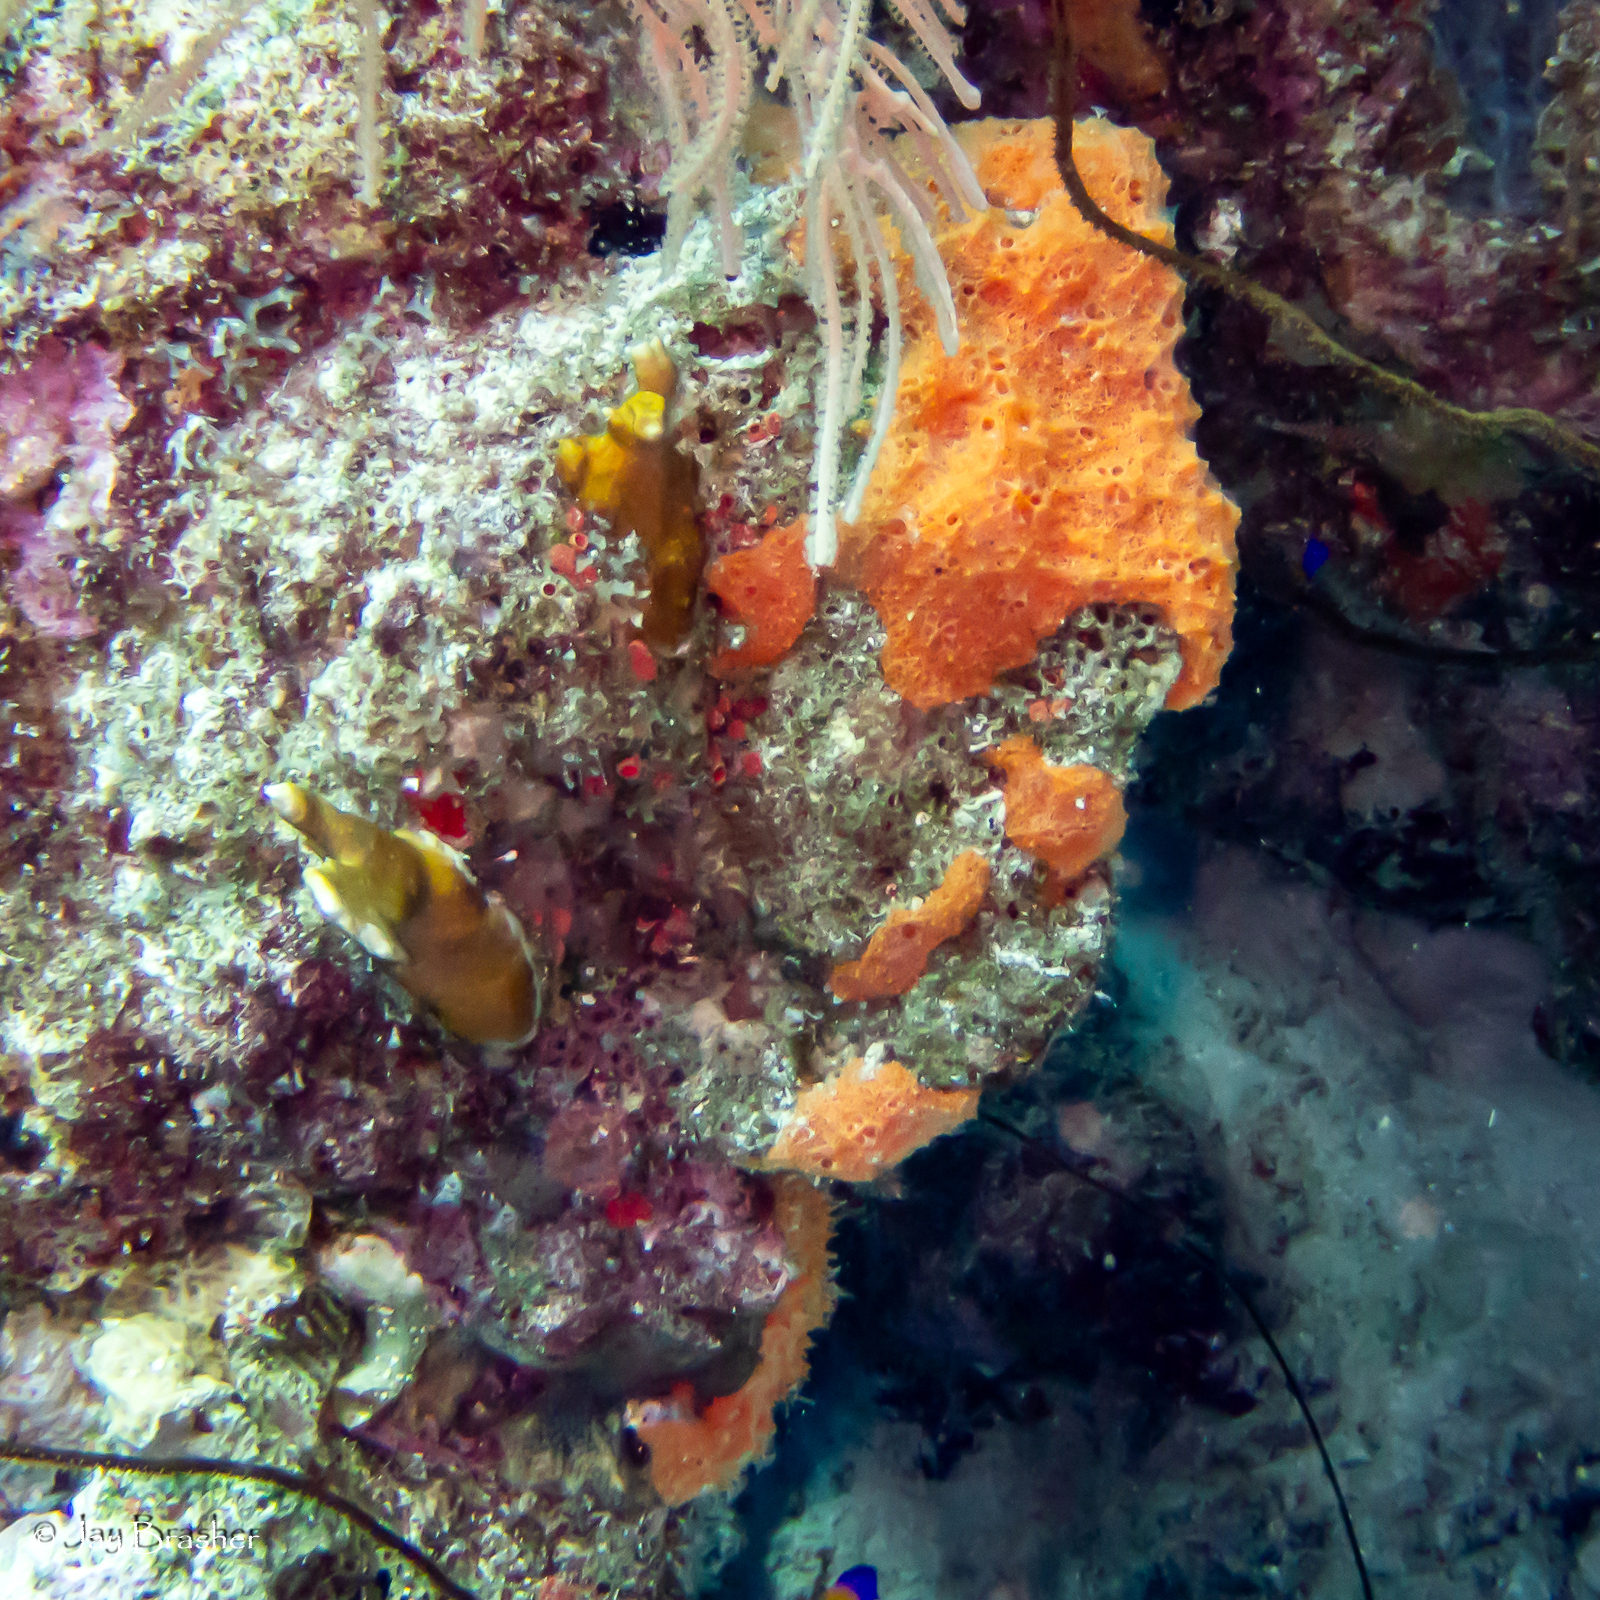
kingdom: Animalia
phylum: Porifera
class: Demospongiae
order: Scopalinida
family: Scopalinidae
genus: Scopalina
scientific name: Scopalina ruetzleri
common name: Orange lumpy encrusting sponge
